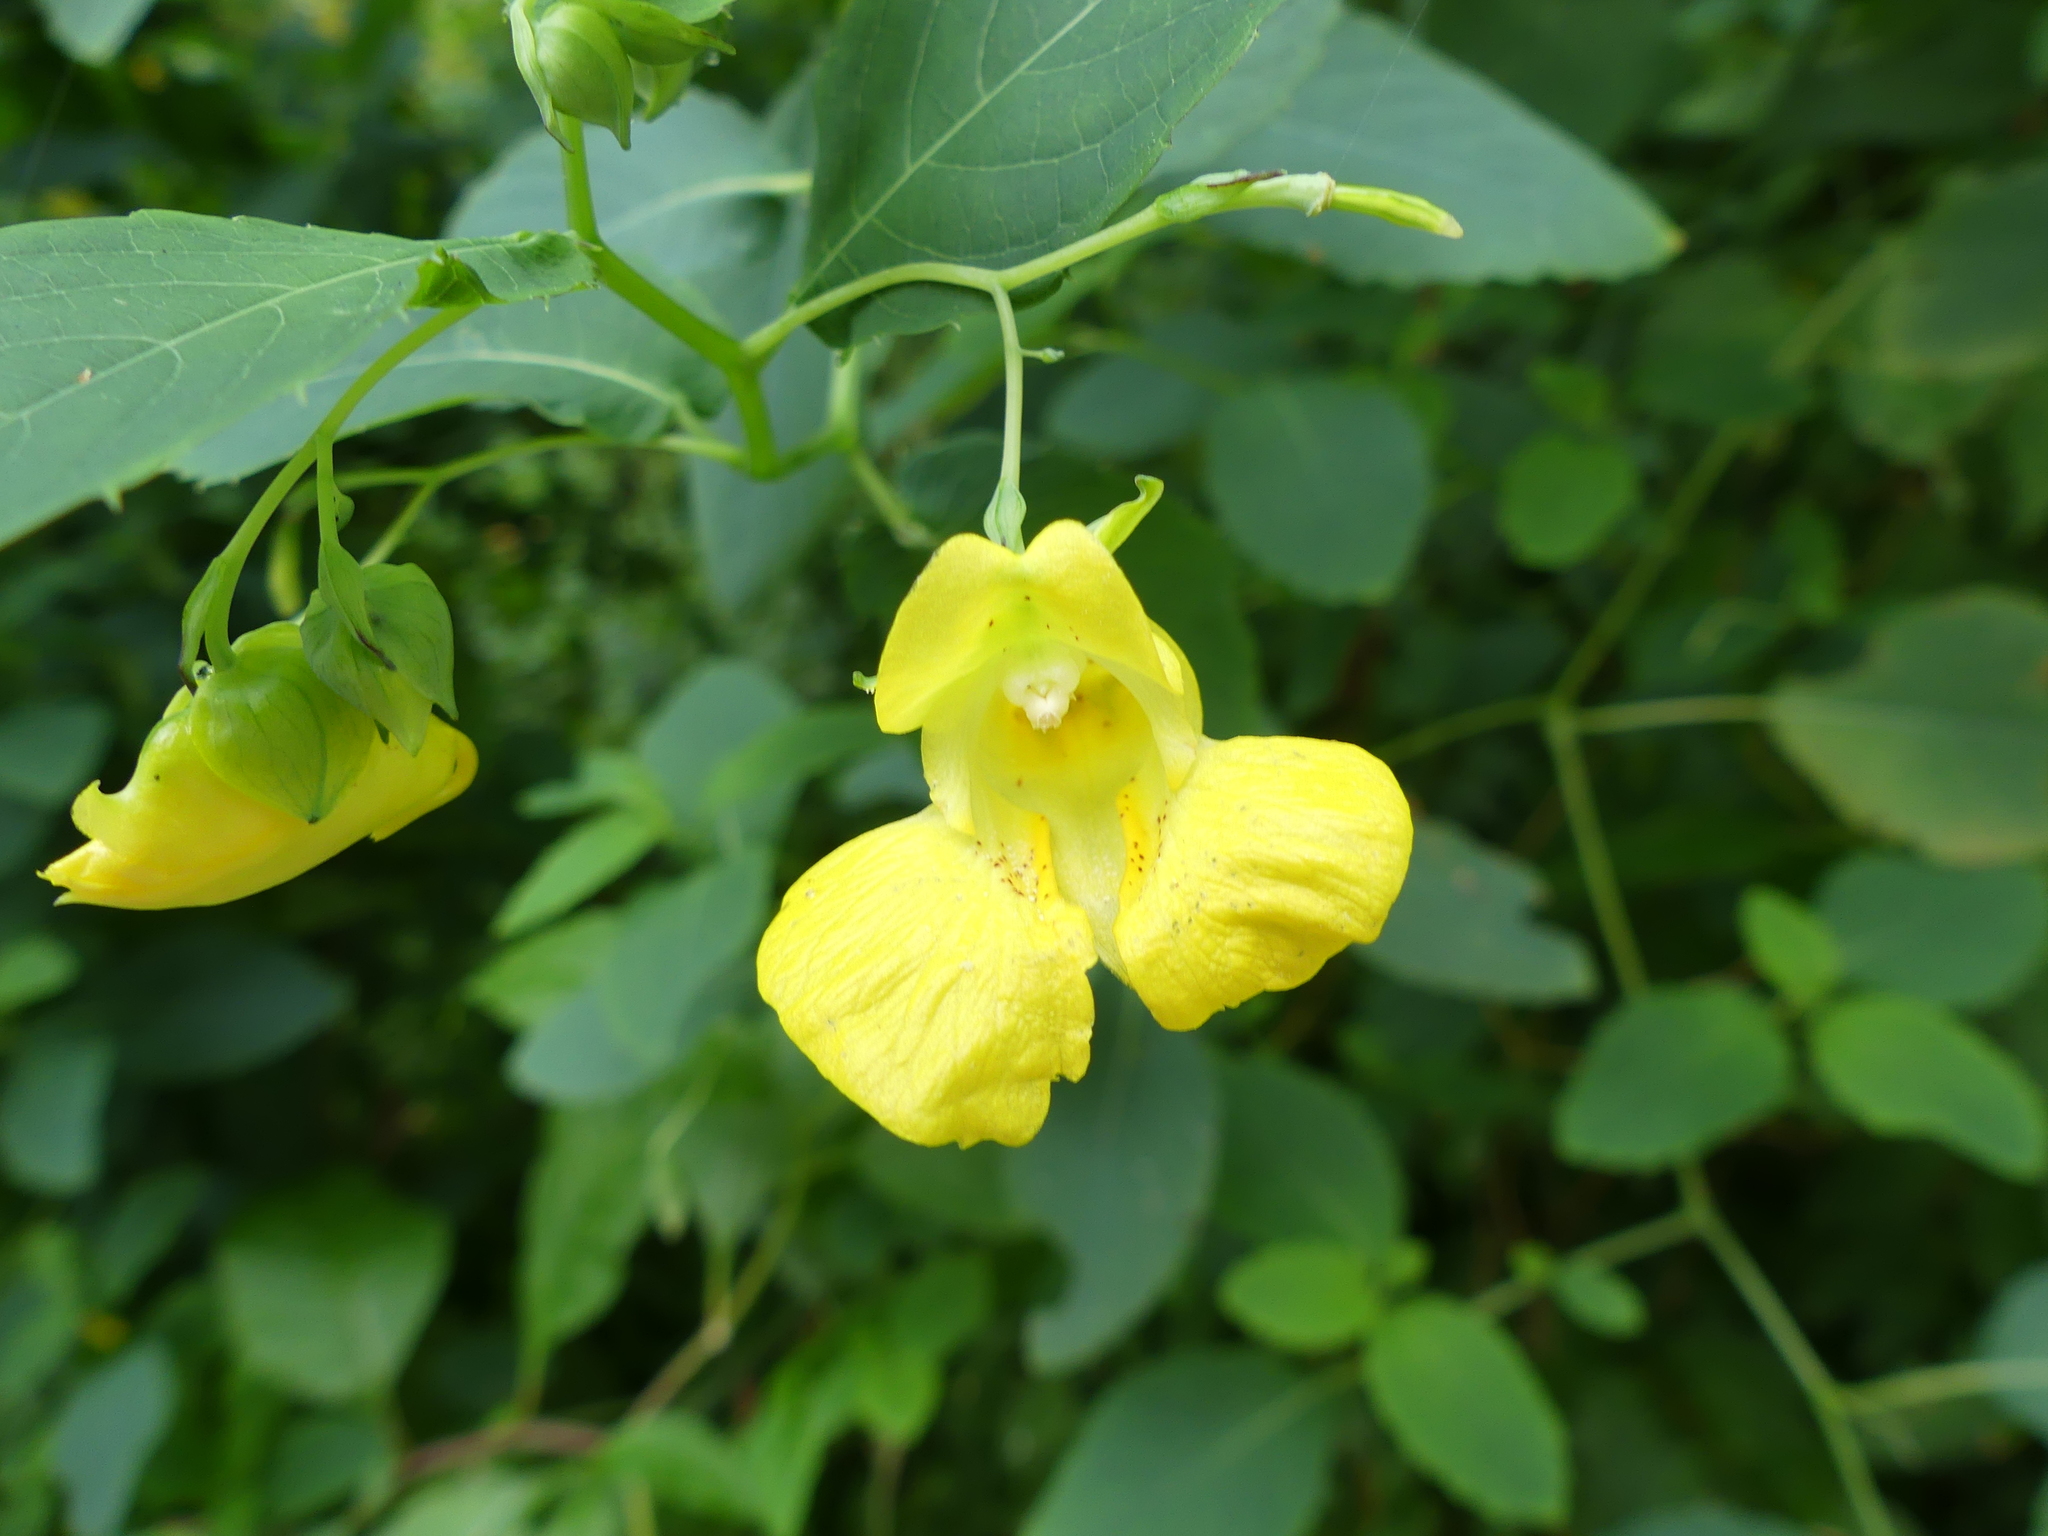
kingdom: Plantae
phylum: Tracheophyta
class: Magnoliopsida
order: Ericales
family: Balsaminaceae
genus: Impatiens
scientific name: Impatiens pallida
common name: Pale snapweed
